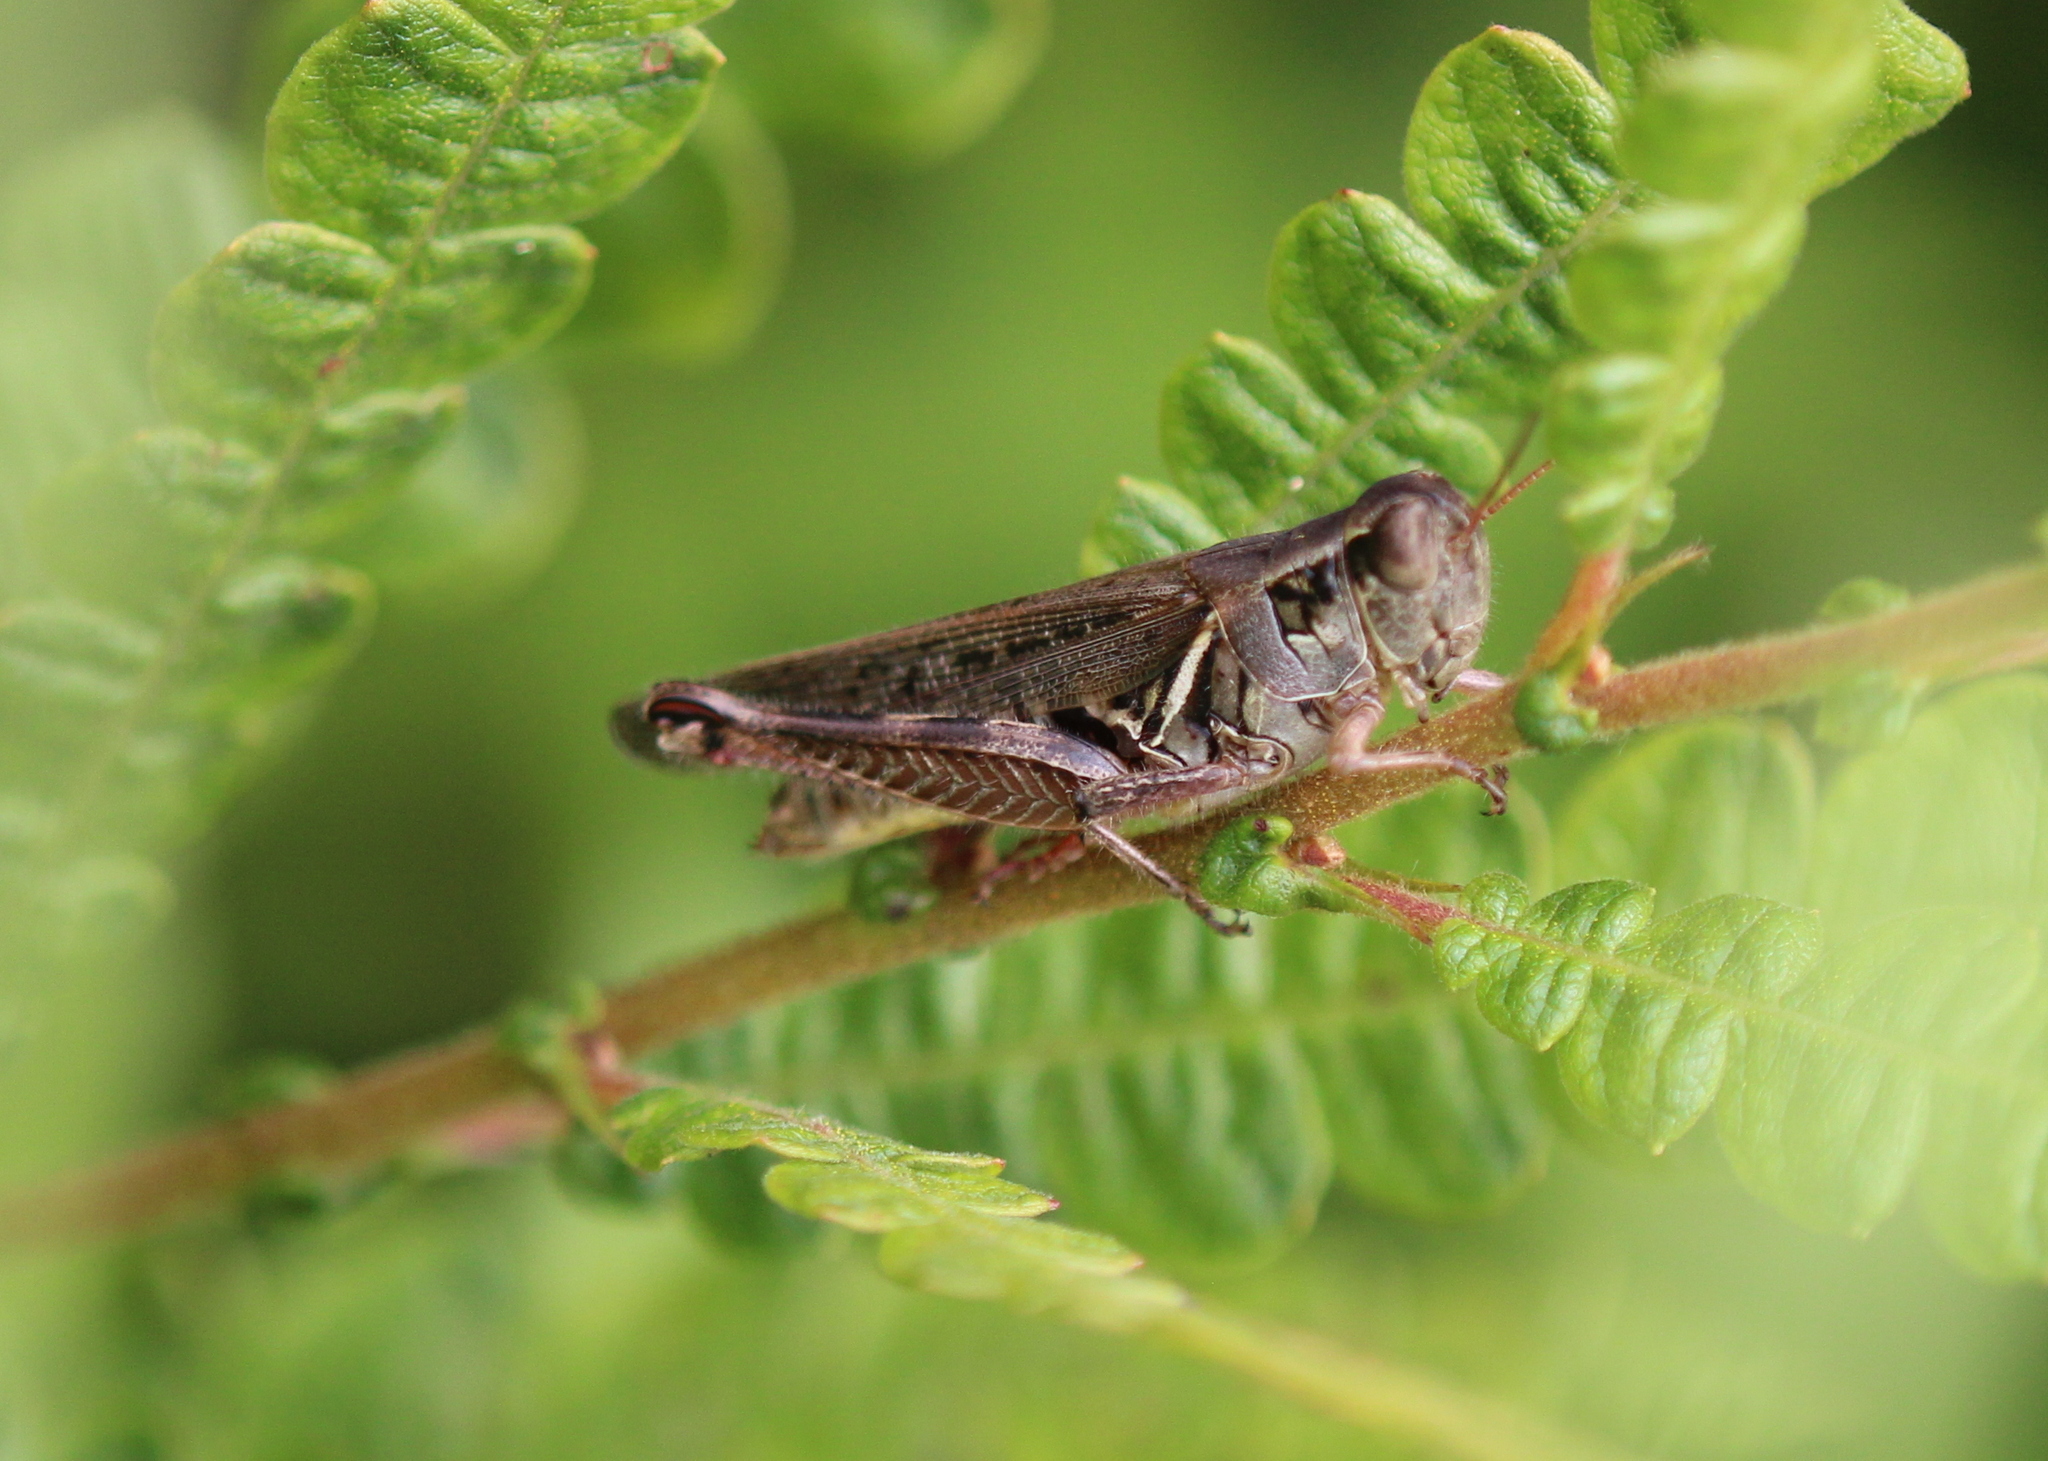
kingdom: Animalia
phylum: Arthropoda
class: Insecta
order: Orthoptera
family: Acrididae
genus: Melanoplus
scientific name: Melanoplus femurrubrum
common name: Red-legged grasshopper
